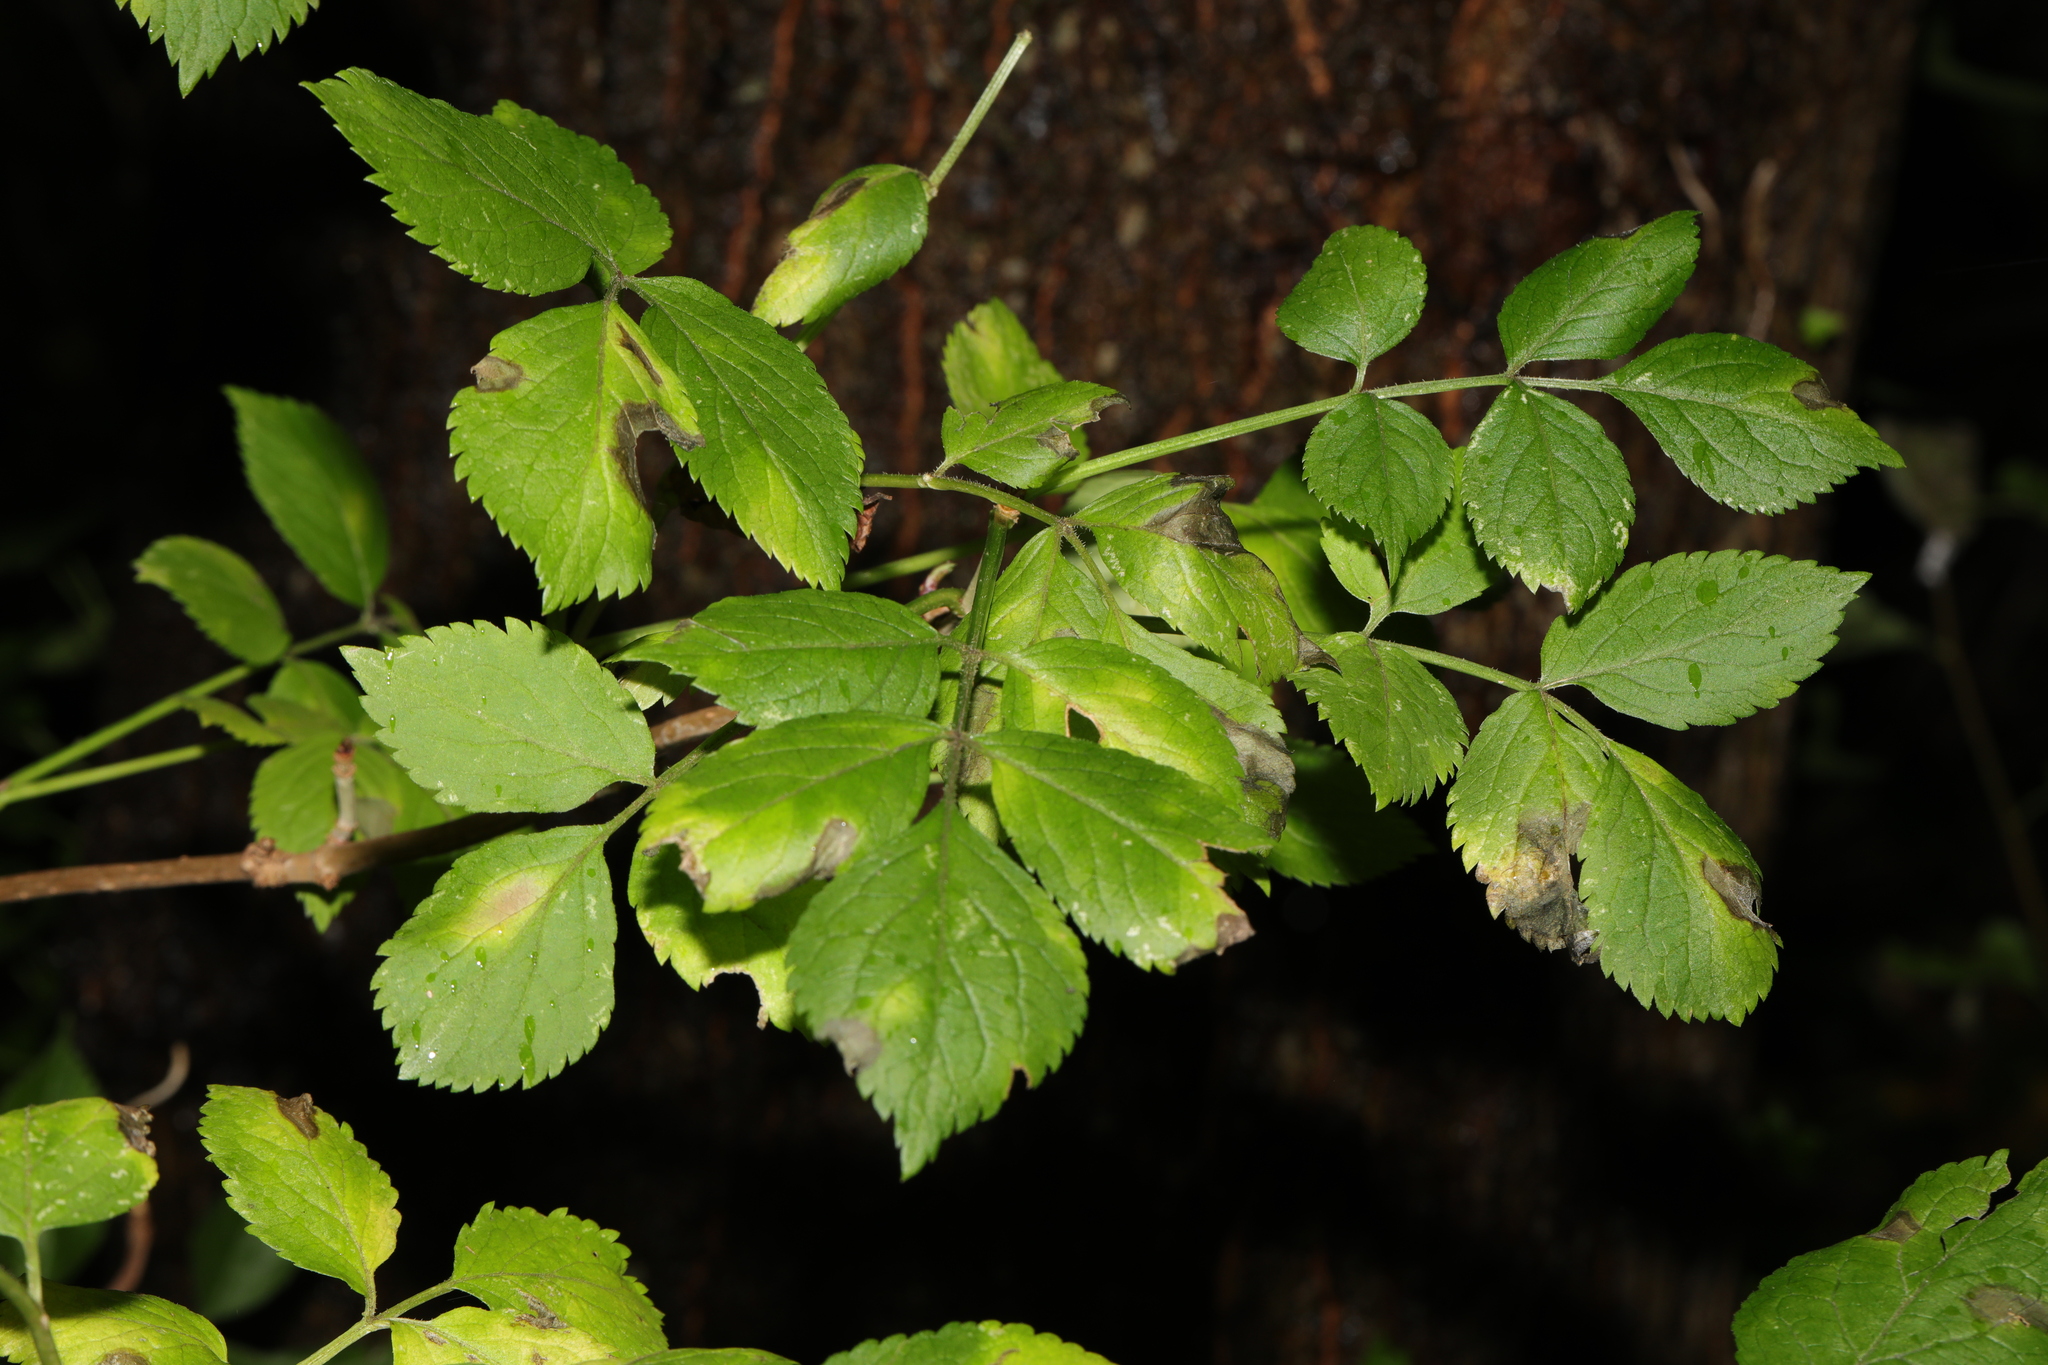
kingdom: Plantae
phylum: Tracheophyta
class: Magnoliopsida
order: Dipsacales
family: Viburnaceae
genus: Sambucus
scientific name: Sambucus nigra
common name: Elder
